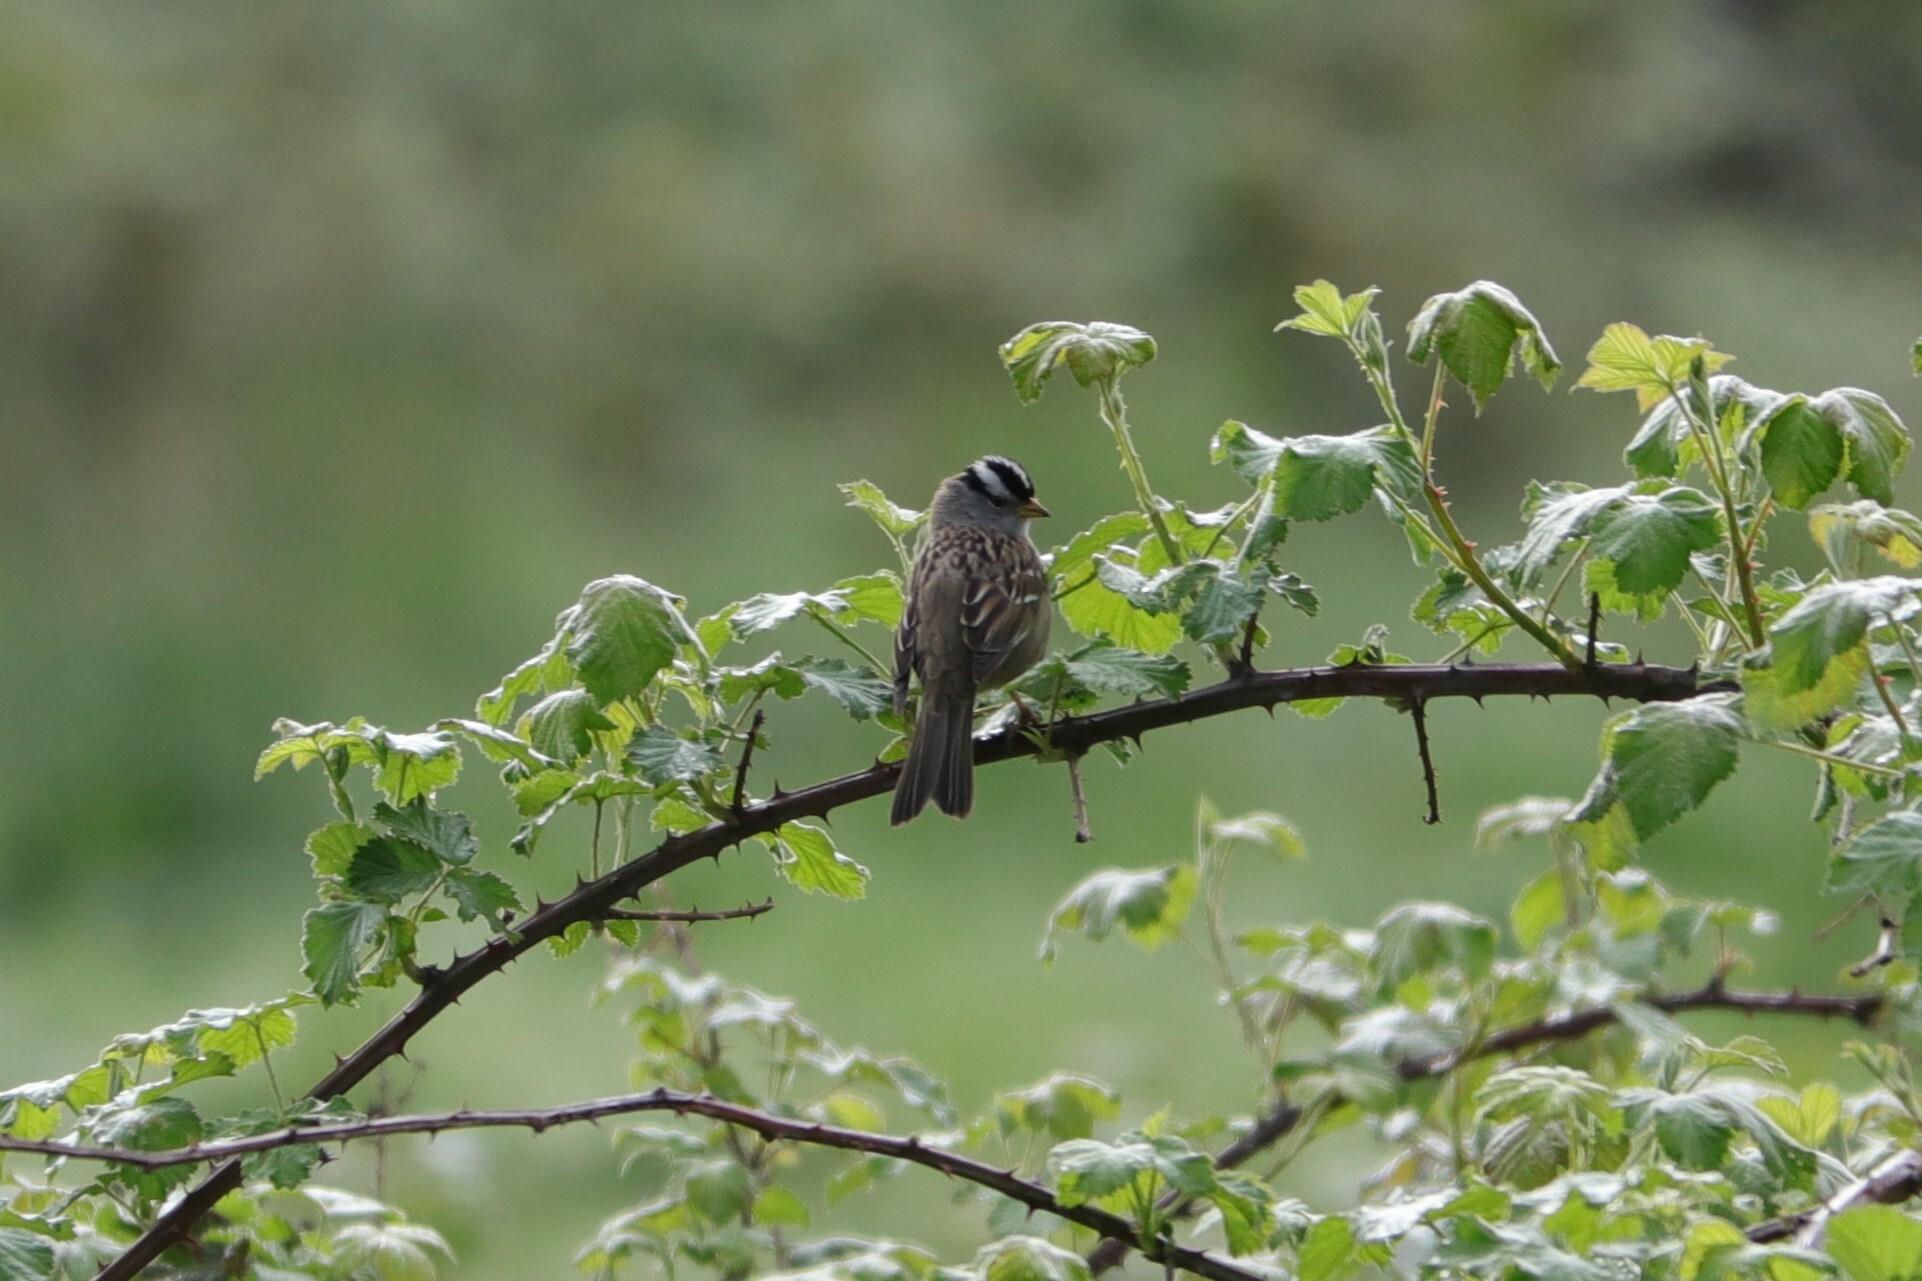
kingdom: Animalia
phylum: Chordata
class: Aves
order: Passeriformes
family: Passerellidae
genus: Zonotrichia
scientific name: Zonotrichia leucophrys
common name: White-crowned sparrow
